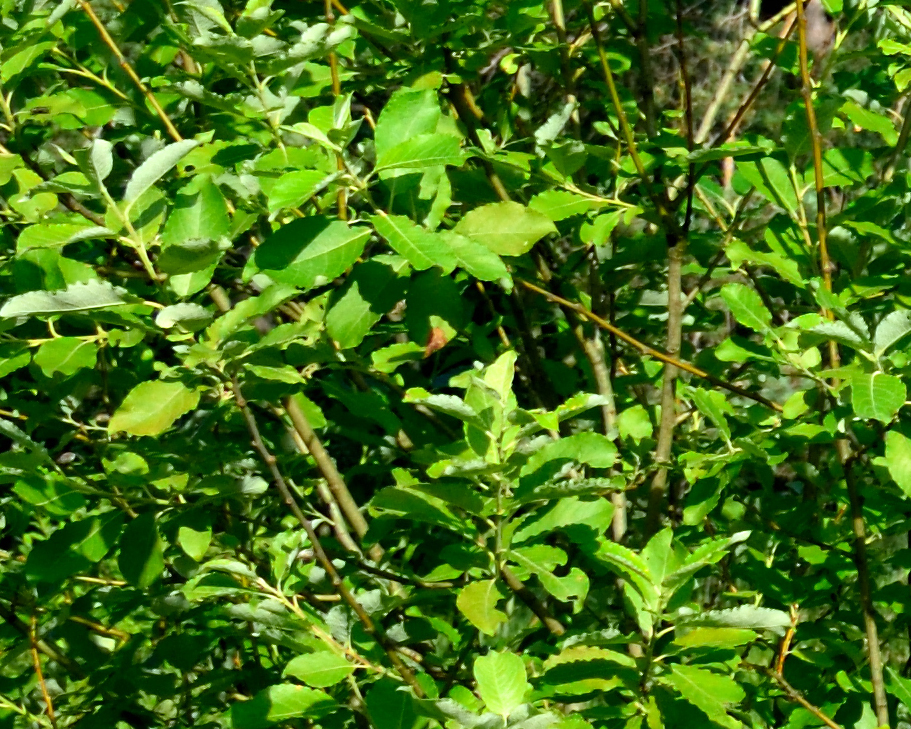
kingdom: Plantae
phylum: Tracheophyta
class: Magnoliopsida
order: Malpighiales
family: Salicaceae
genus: Salix
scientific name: Salix caprea
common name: Goat willow
